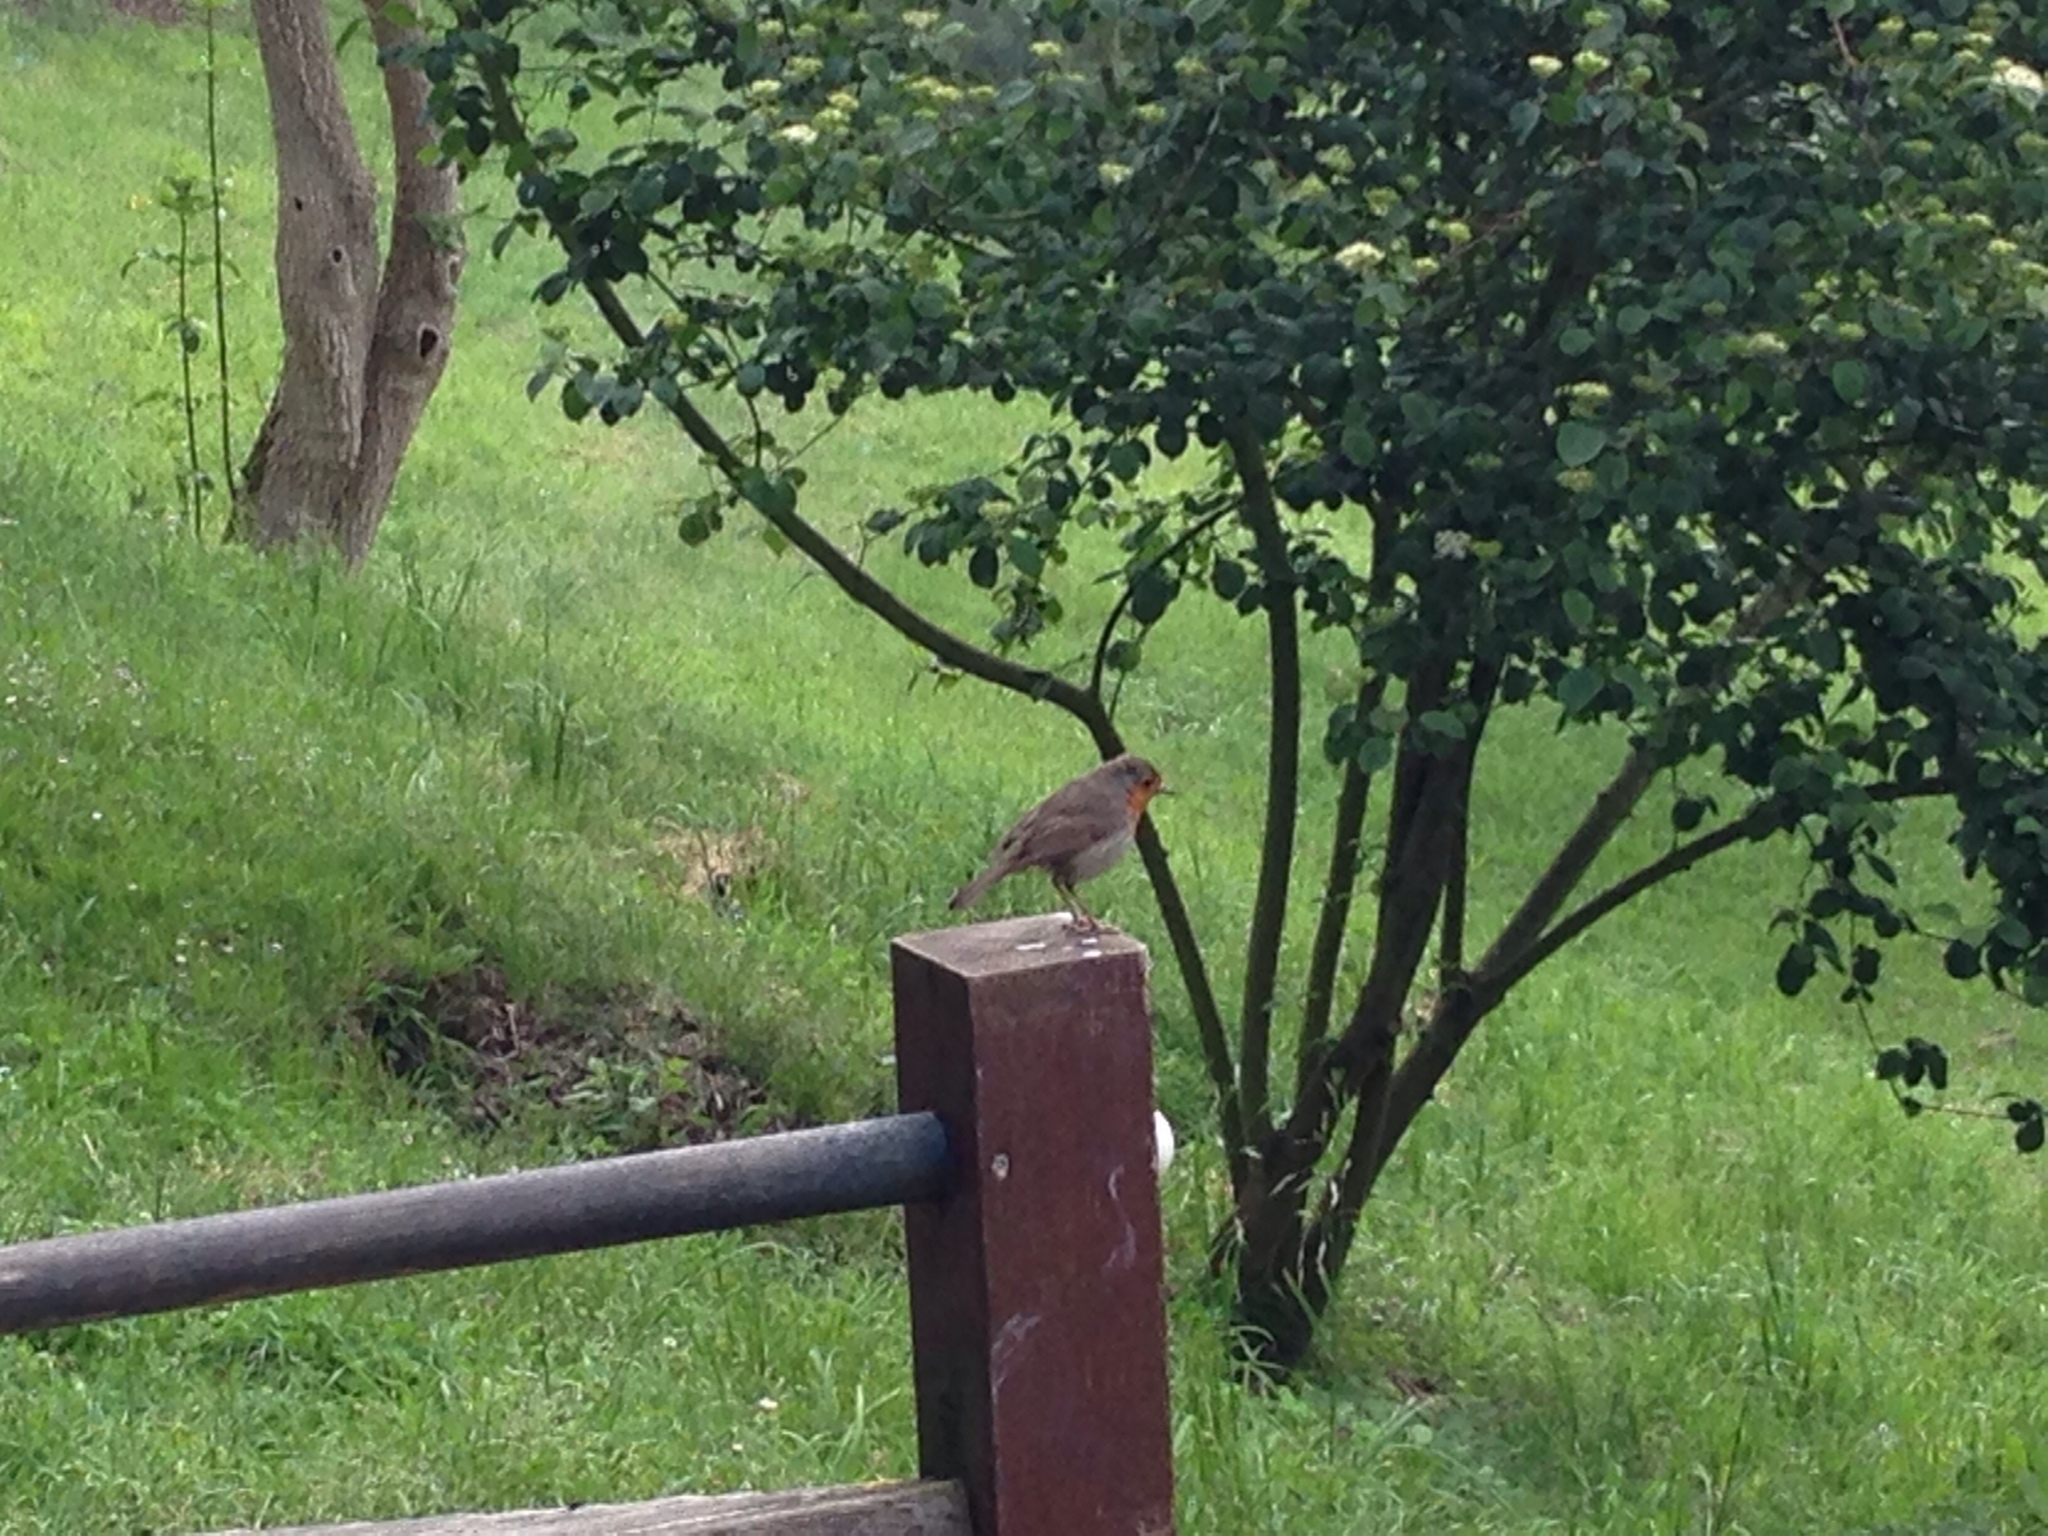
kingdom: Animalia
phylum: Chordata
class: Aves
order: Passeriformes
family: Muscicapidae
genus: Erithacus
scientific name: Erithacus rubecula
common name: European robin
